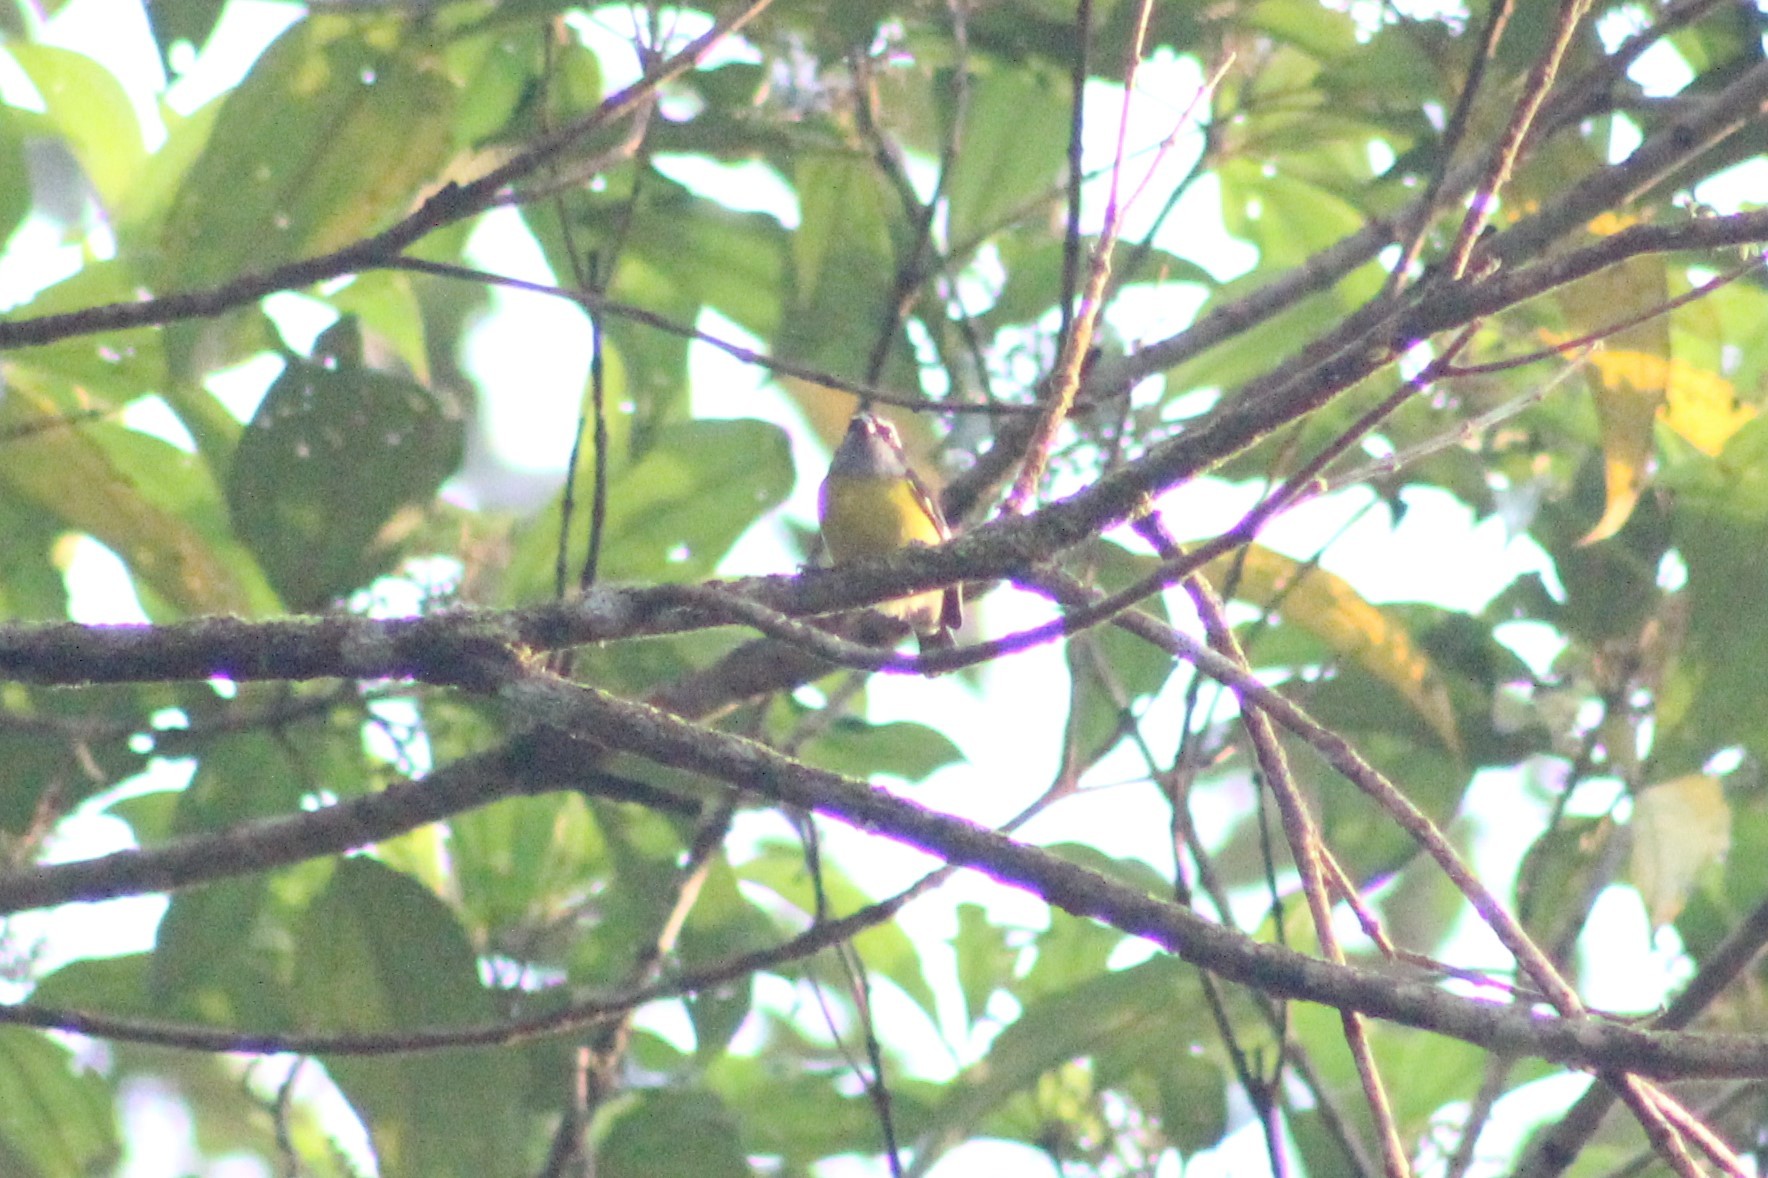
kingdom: Animalia
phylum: Chordata
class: Aves
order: Passeriformes
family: Thraupidae
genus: Coereba
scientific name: Coereba flaveola
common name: Bananaquit
